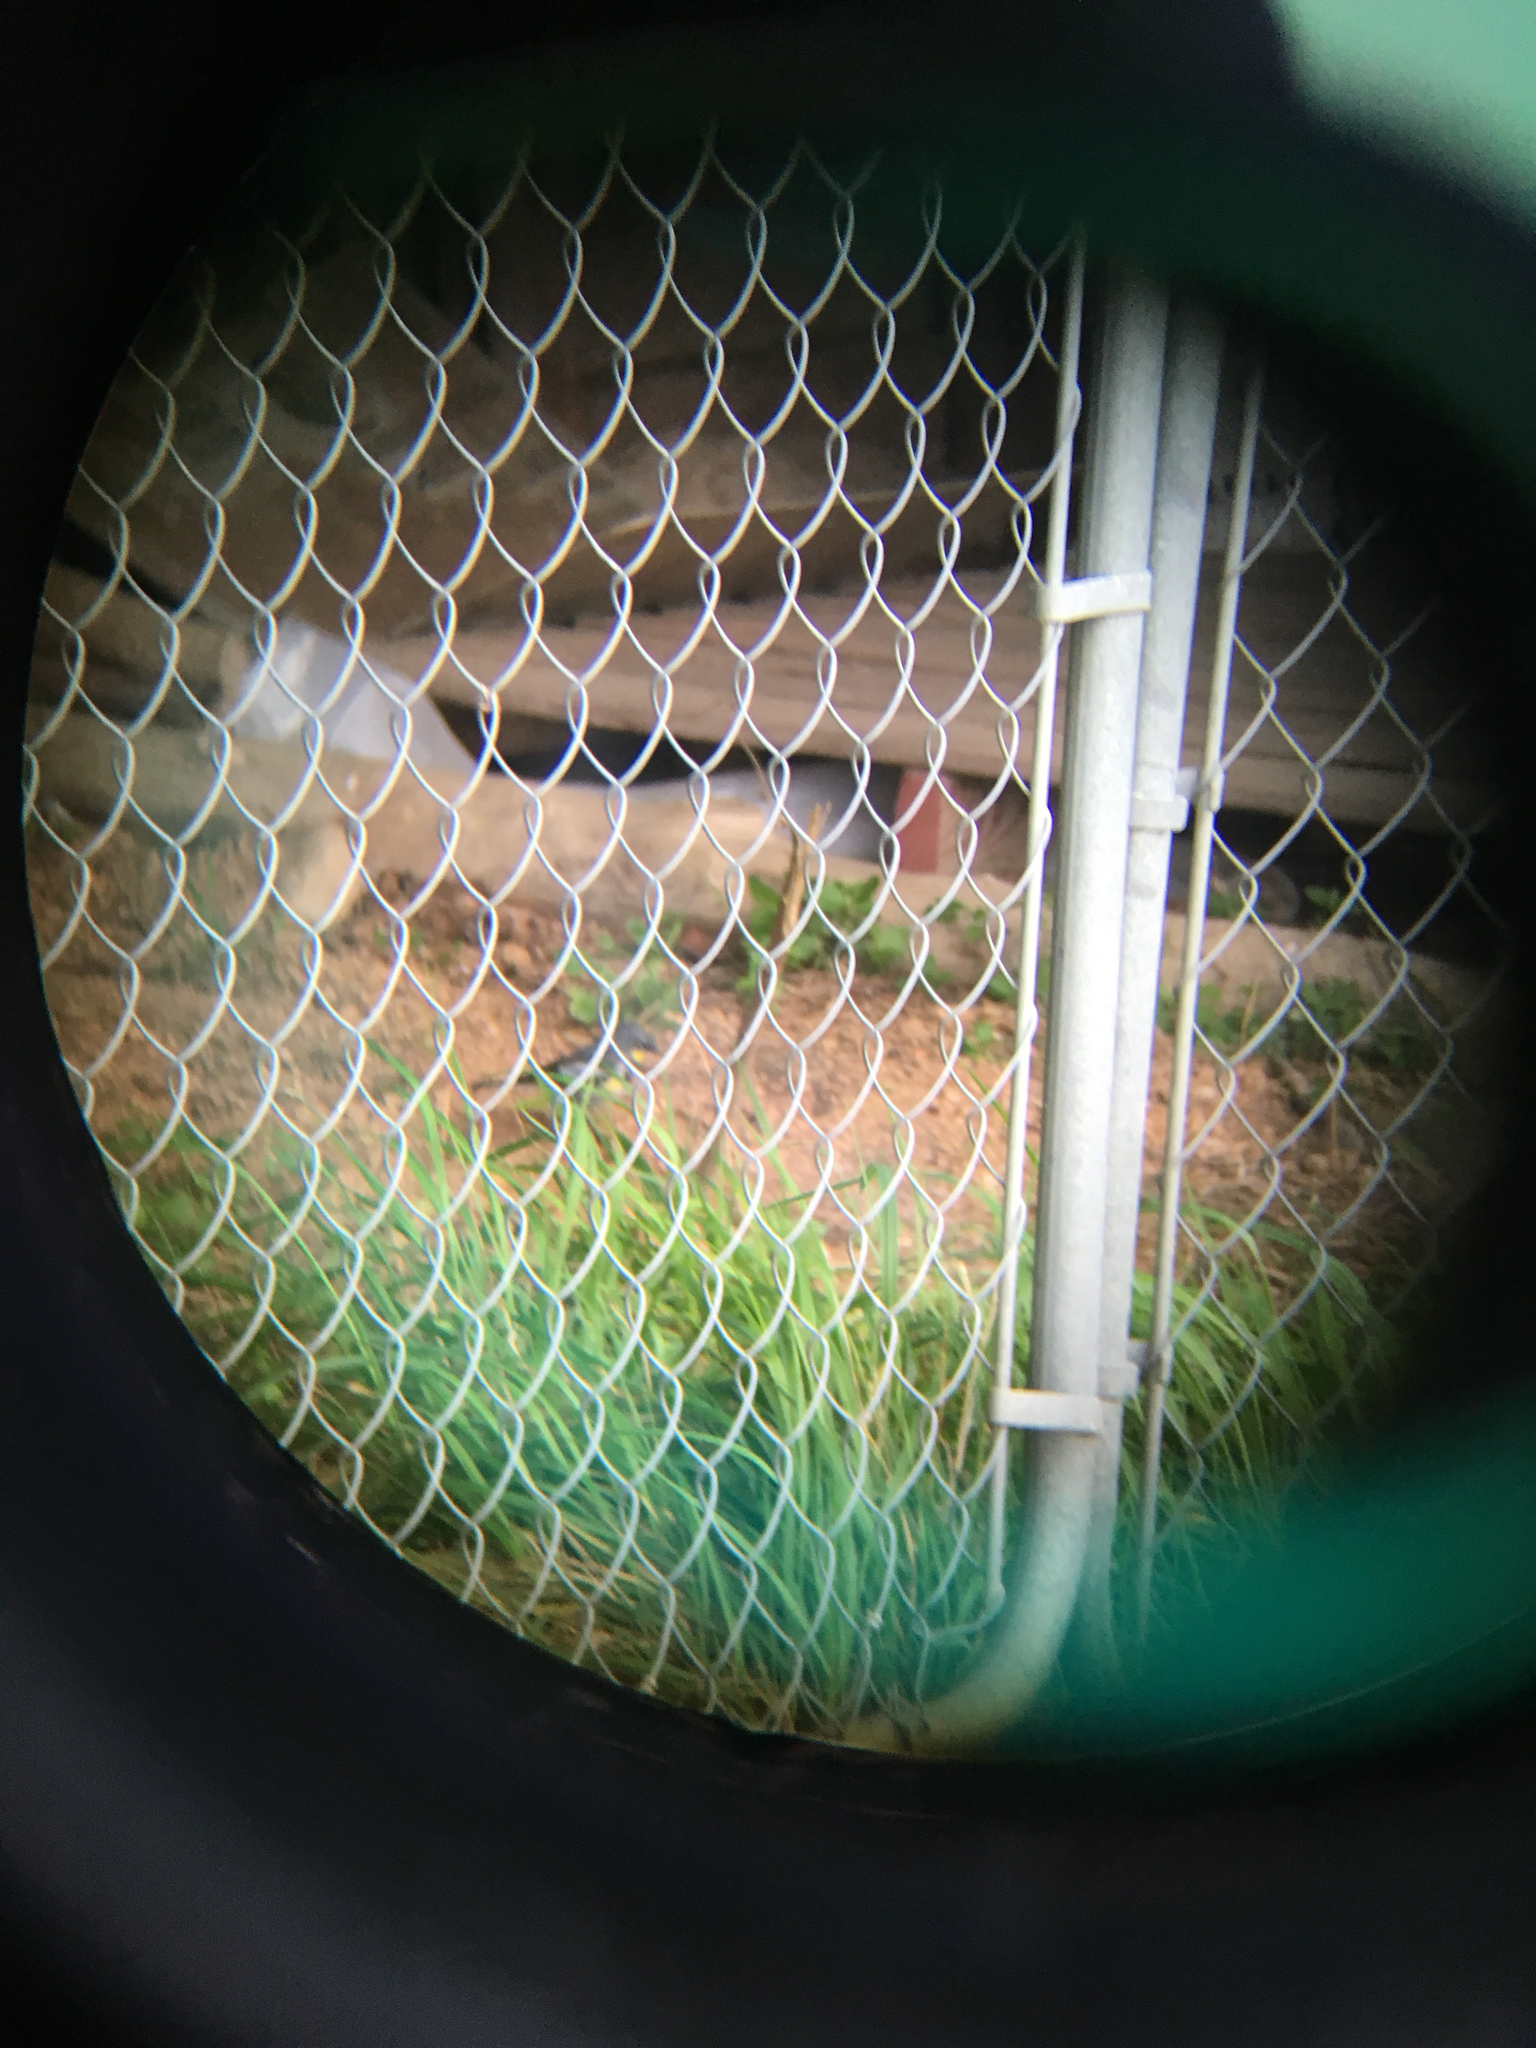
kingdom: Animalia
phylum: Chordata
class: Aves
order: Passeriformes
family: Parulidae
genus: Setophaga
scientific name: Setophaga auduboni
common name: Audubon's warbler
